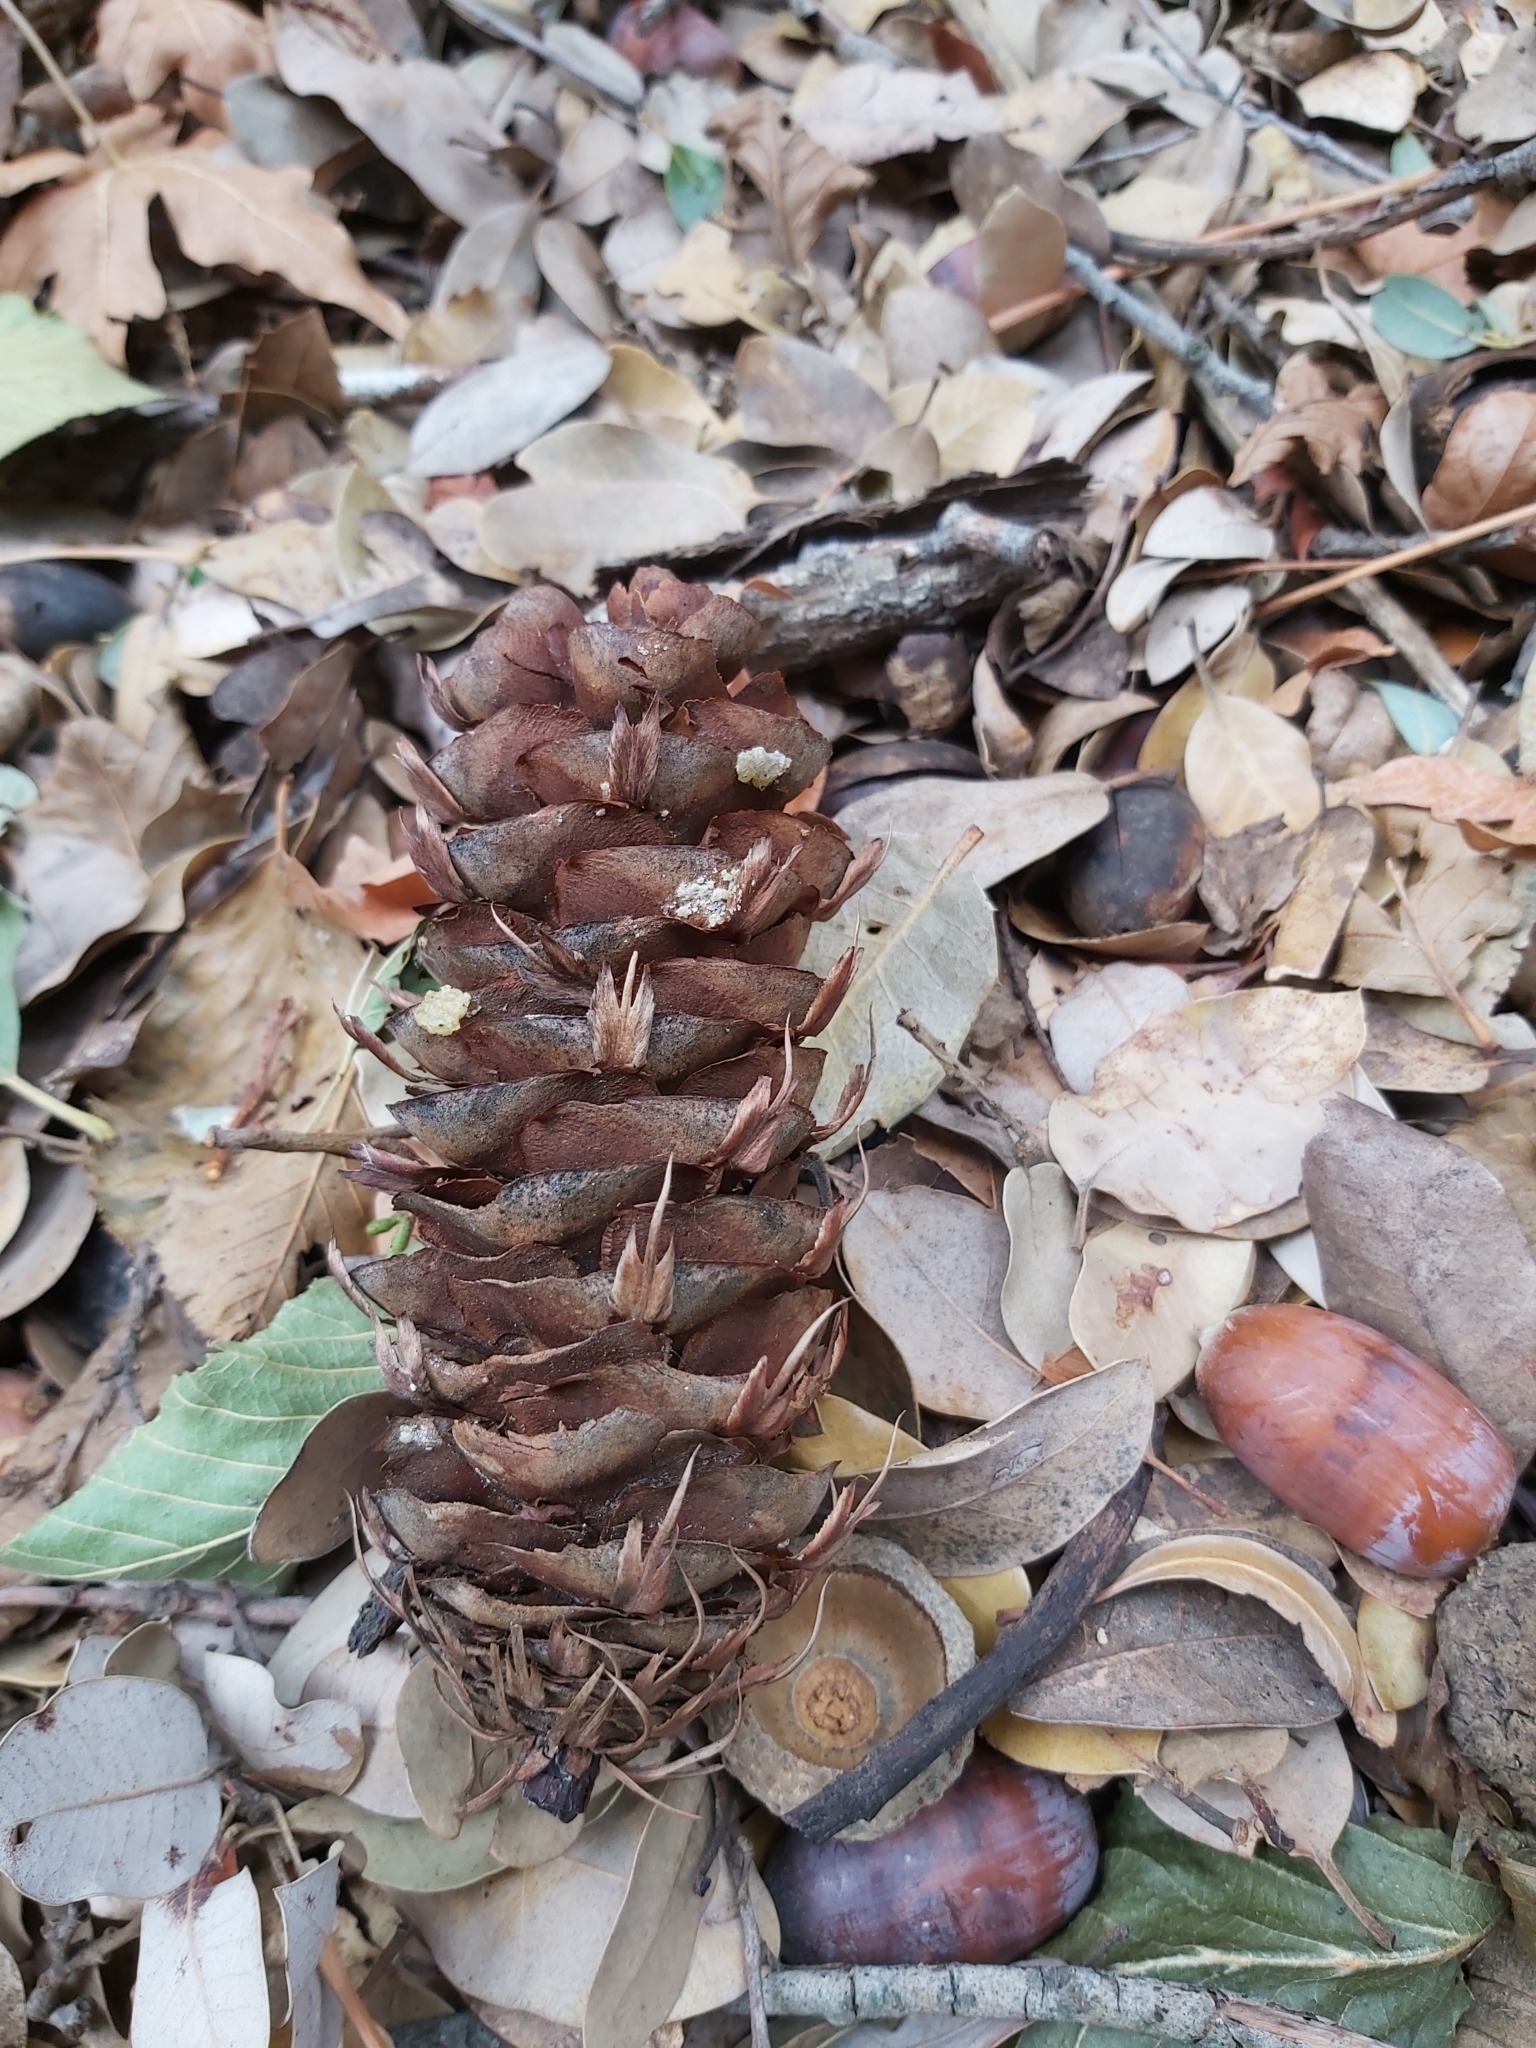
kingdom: Plantae
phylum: Tracheophyta
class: Pinopsida
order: Pinales
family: Pinaceae
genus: Pseudotsuga
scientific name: Pseudotsuga macrocarpa
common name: Big-cone douglas-fir
